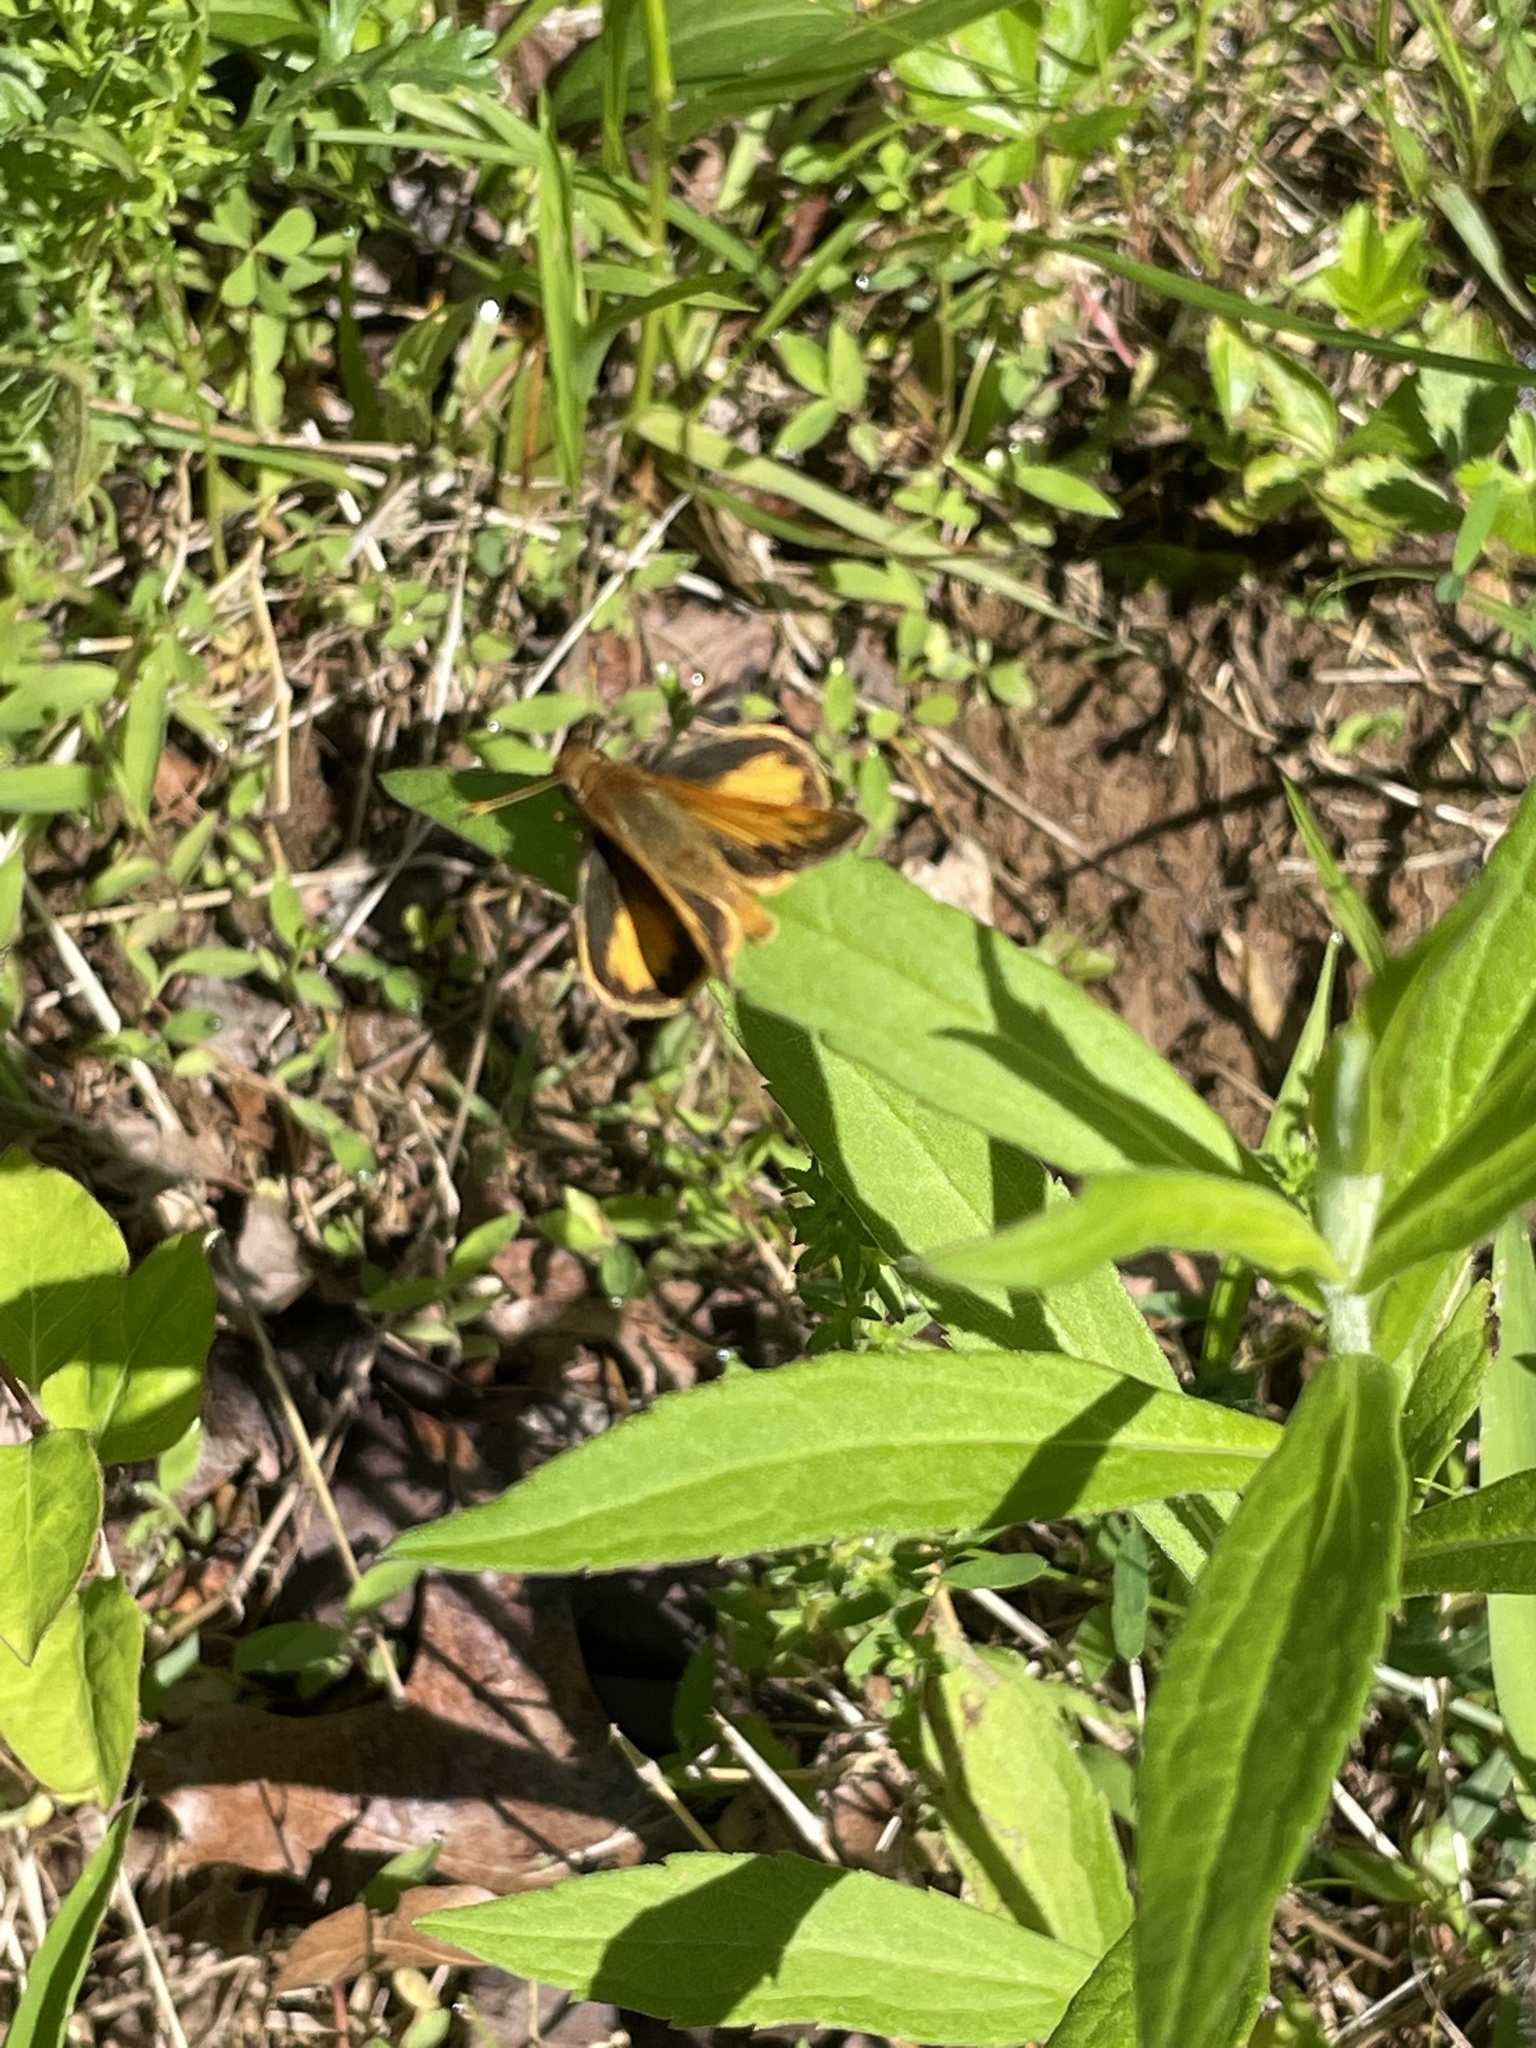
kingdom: Animalia
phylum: Arthropoda
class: Insecta
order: Lepidoptera
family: Hesperiidae
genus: Lon
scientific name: Lon zabulon
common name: Zabulon skipper
